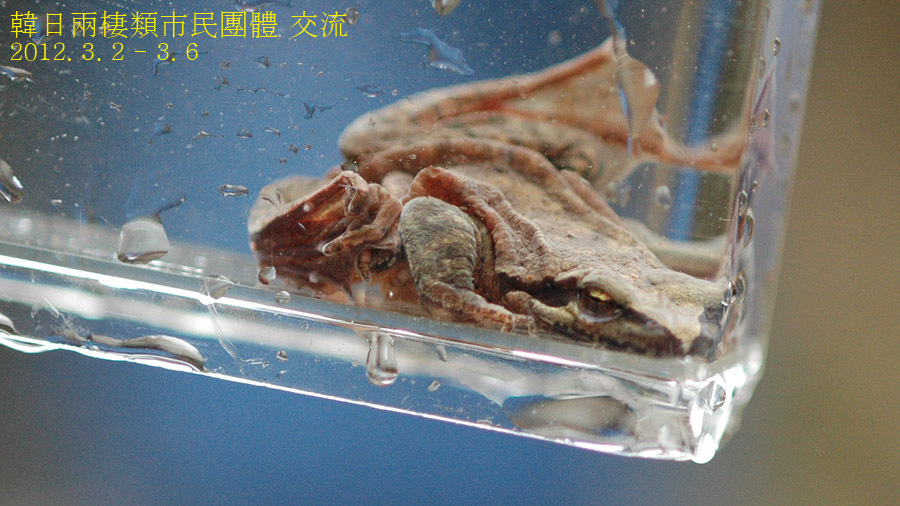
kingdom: Animalia
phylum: Chordata
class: Amphibia
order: Anura
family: Ranidae
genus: Rana
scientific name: Rana sakuraii
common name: Stream brown frog
